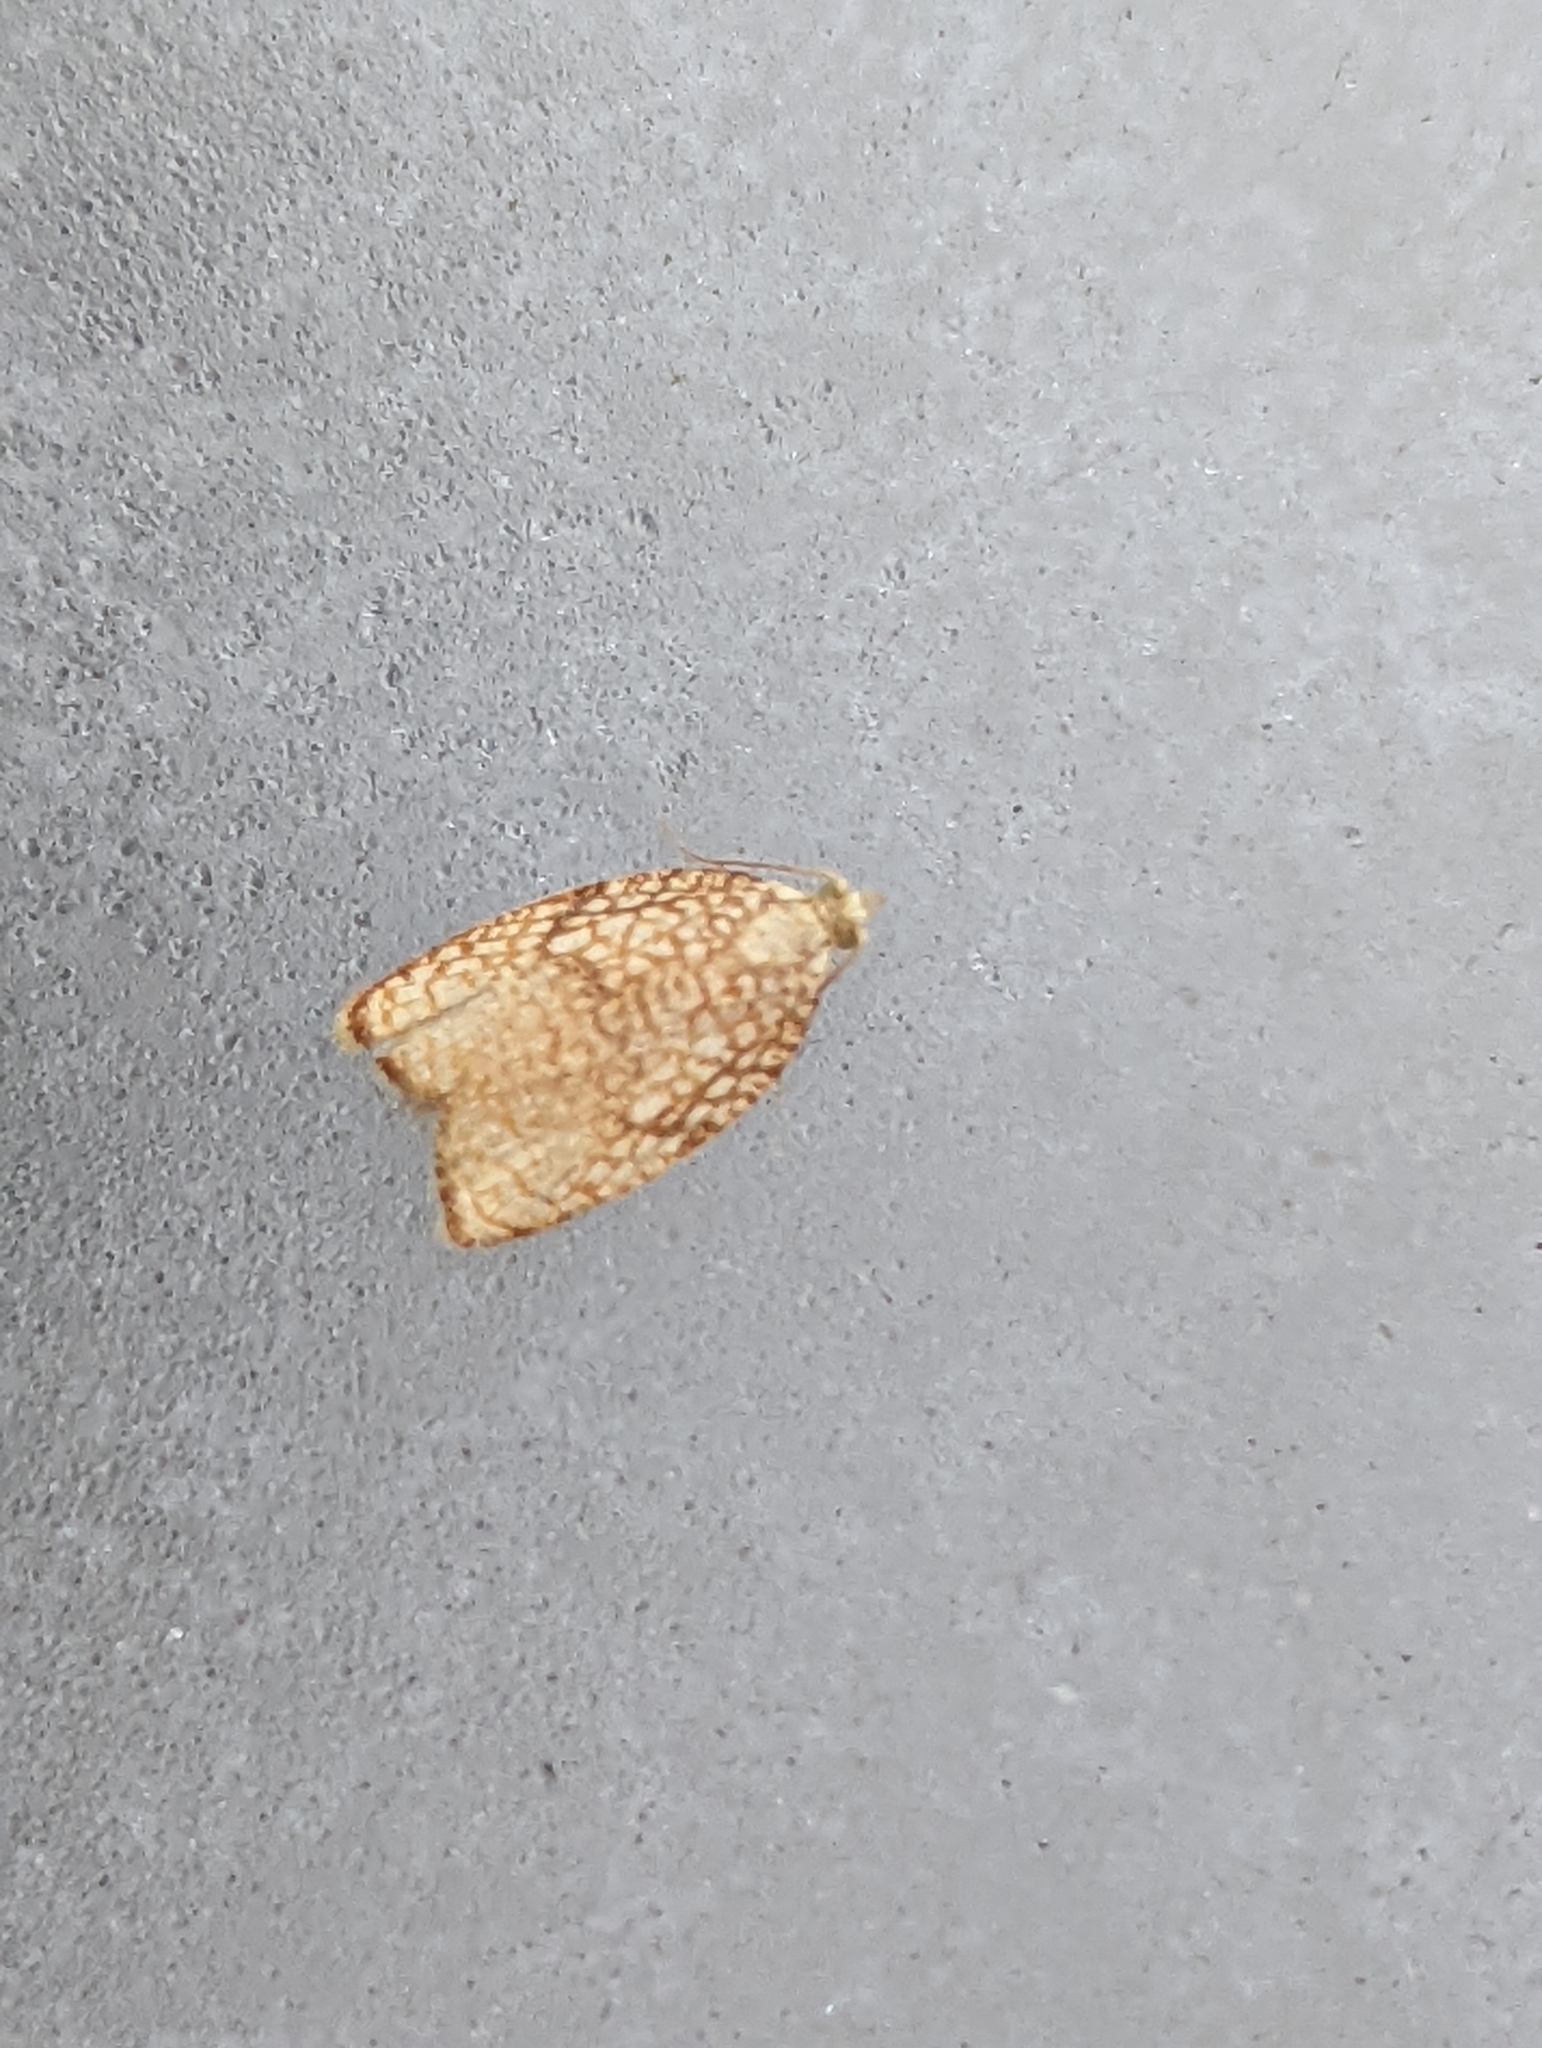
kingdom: Animalia
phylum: Arthropoda
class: Insecta
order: Lepidoptera
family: Tortricidae
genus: Acleris
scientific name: Acleris forsskaleana
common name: Maple button
